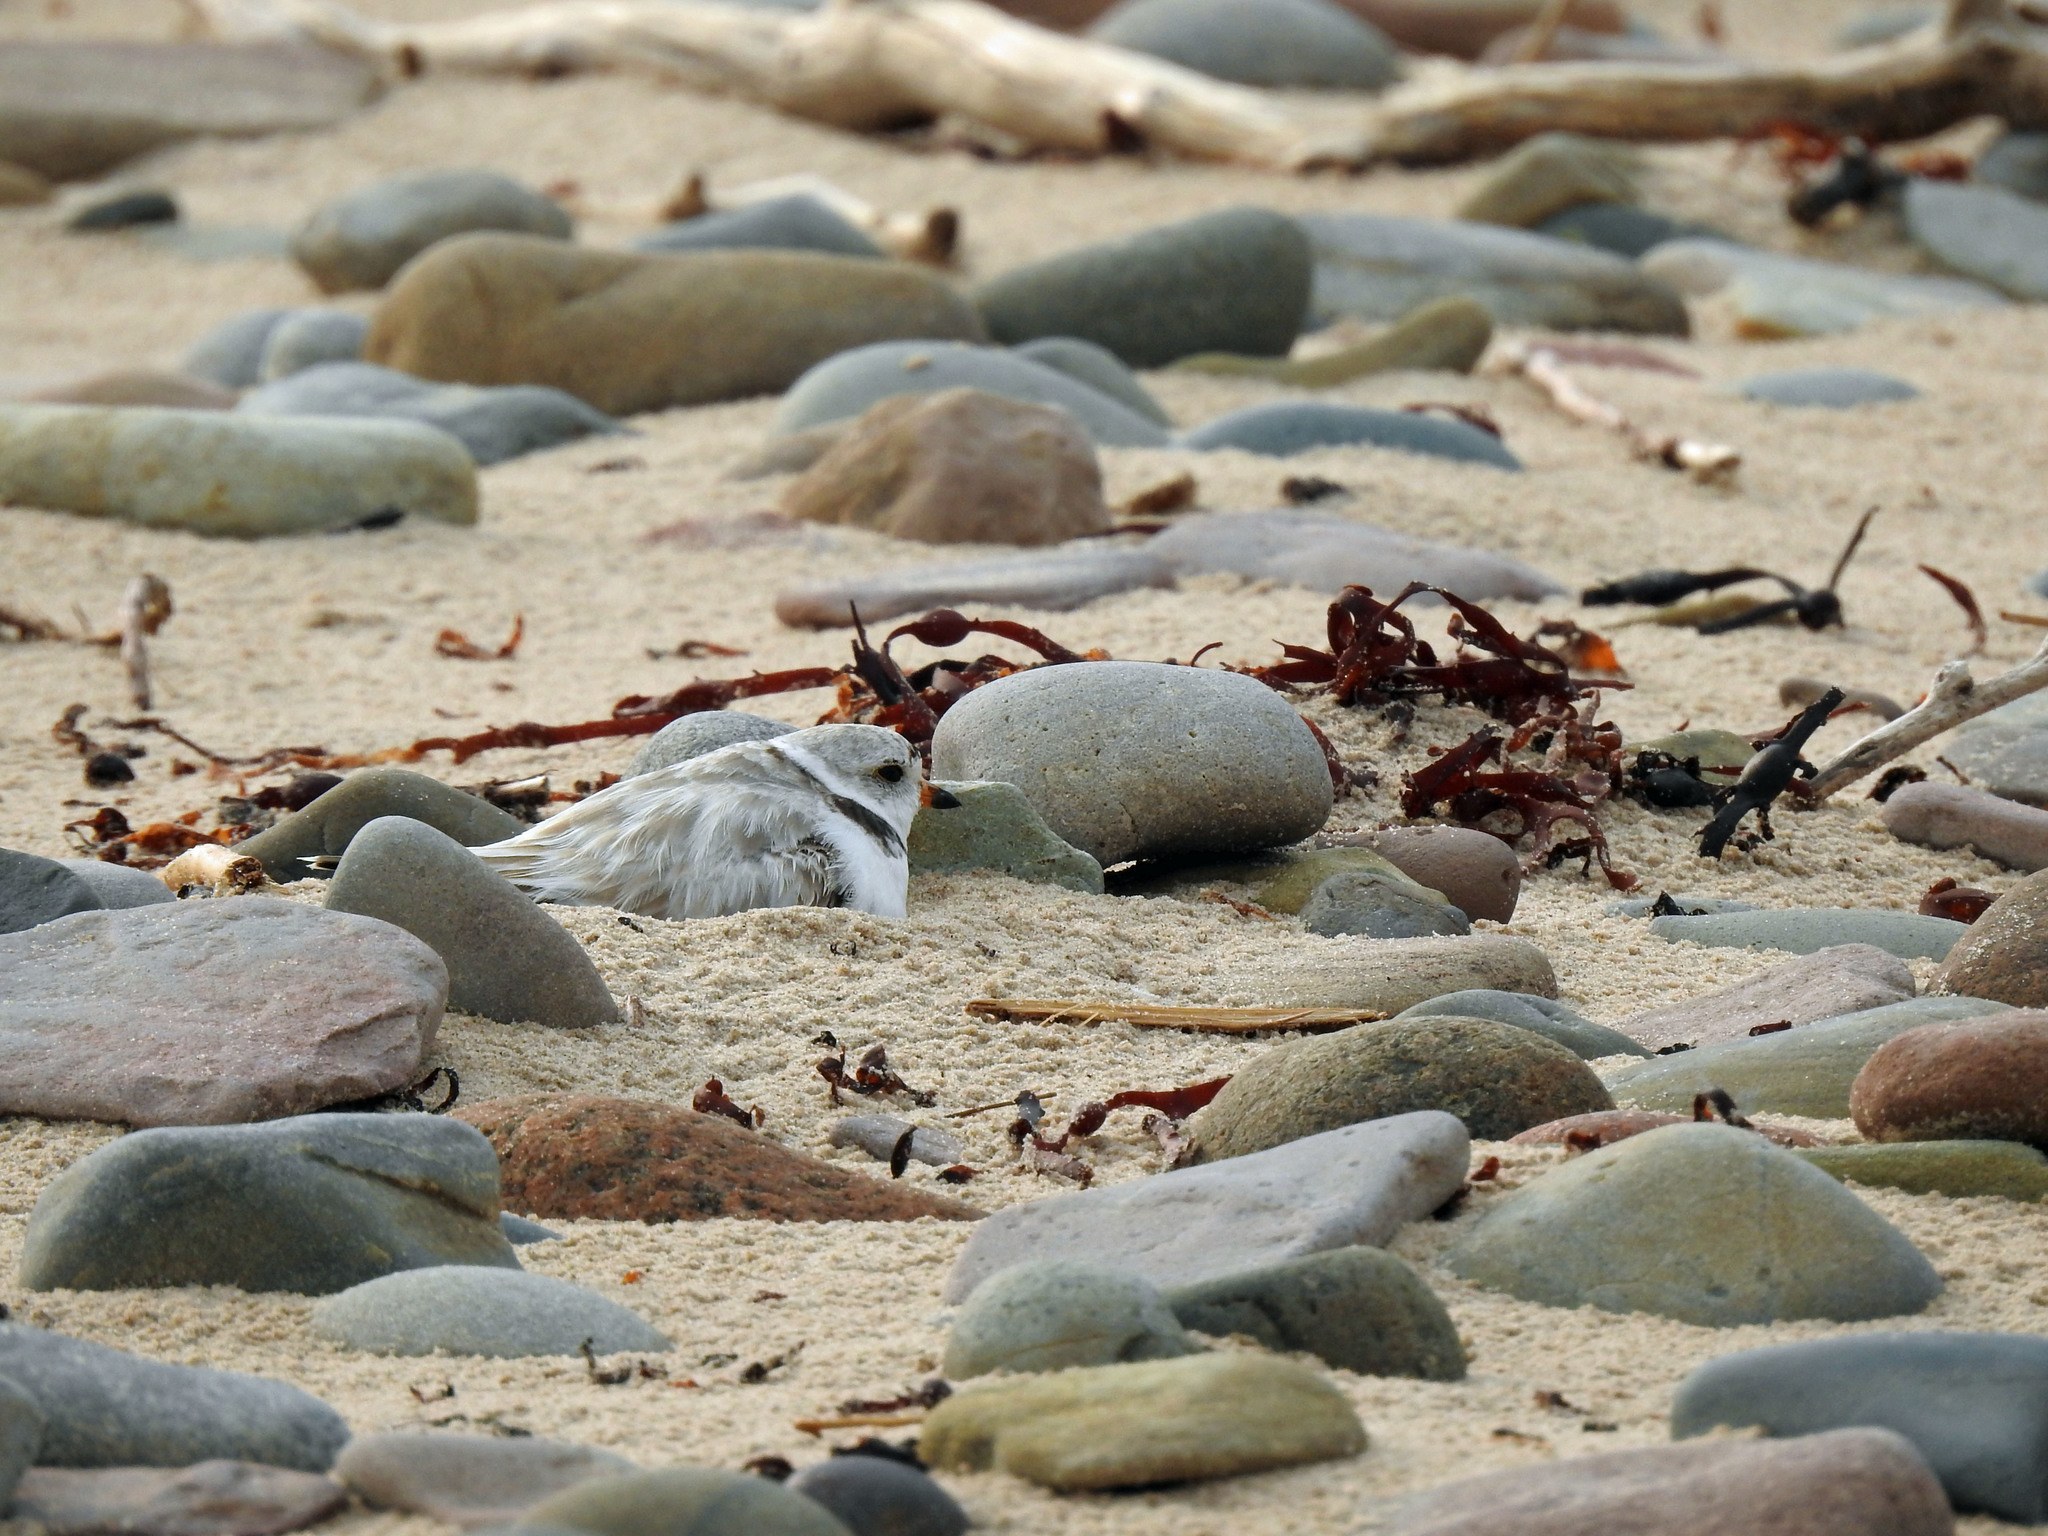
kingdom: Animalia
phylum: Chordata
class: Aves
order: Charadriiformes
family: Charadriidae
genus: Charadrius
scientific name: Charadrius melodus
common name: Piping plover
